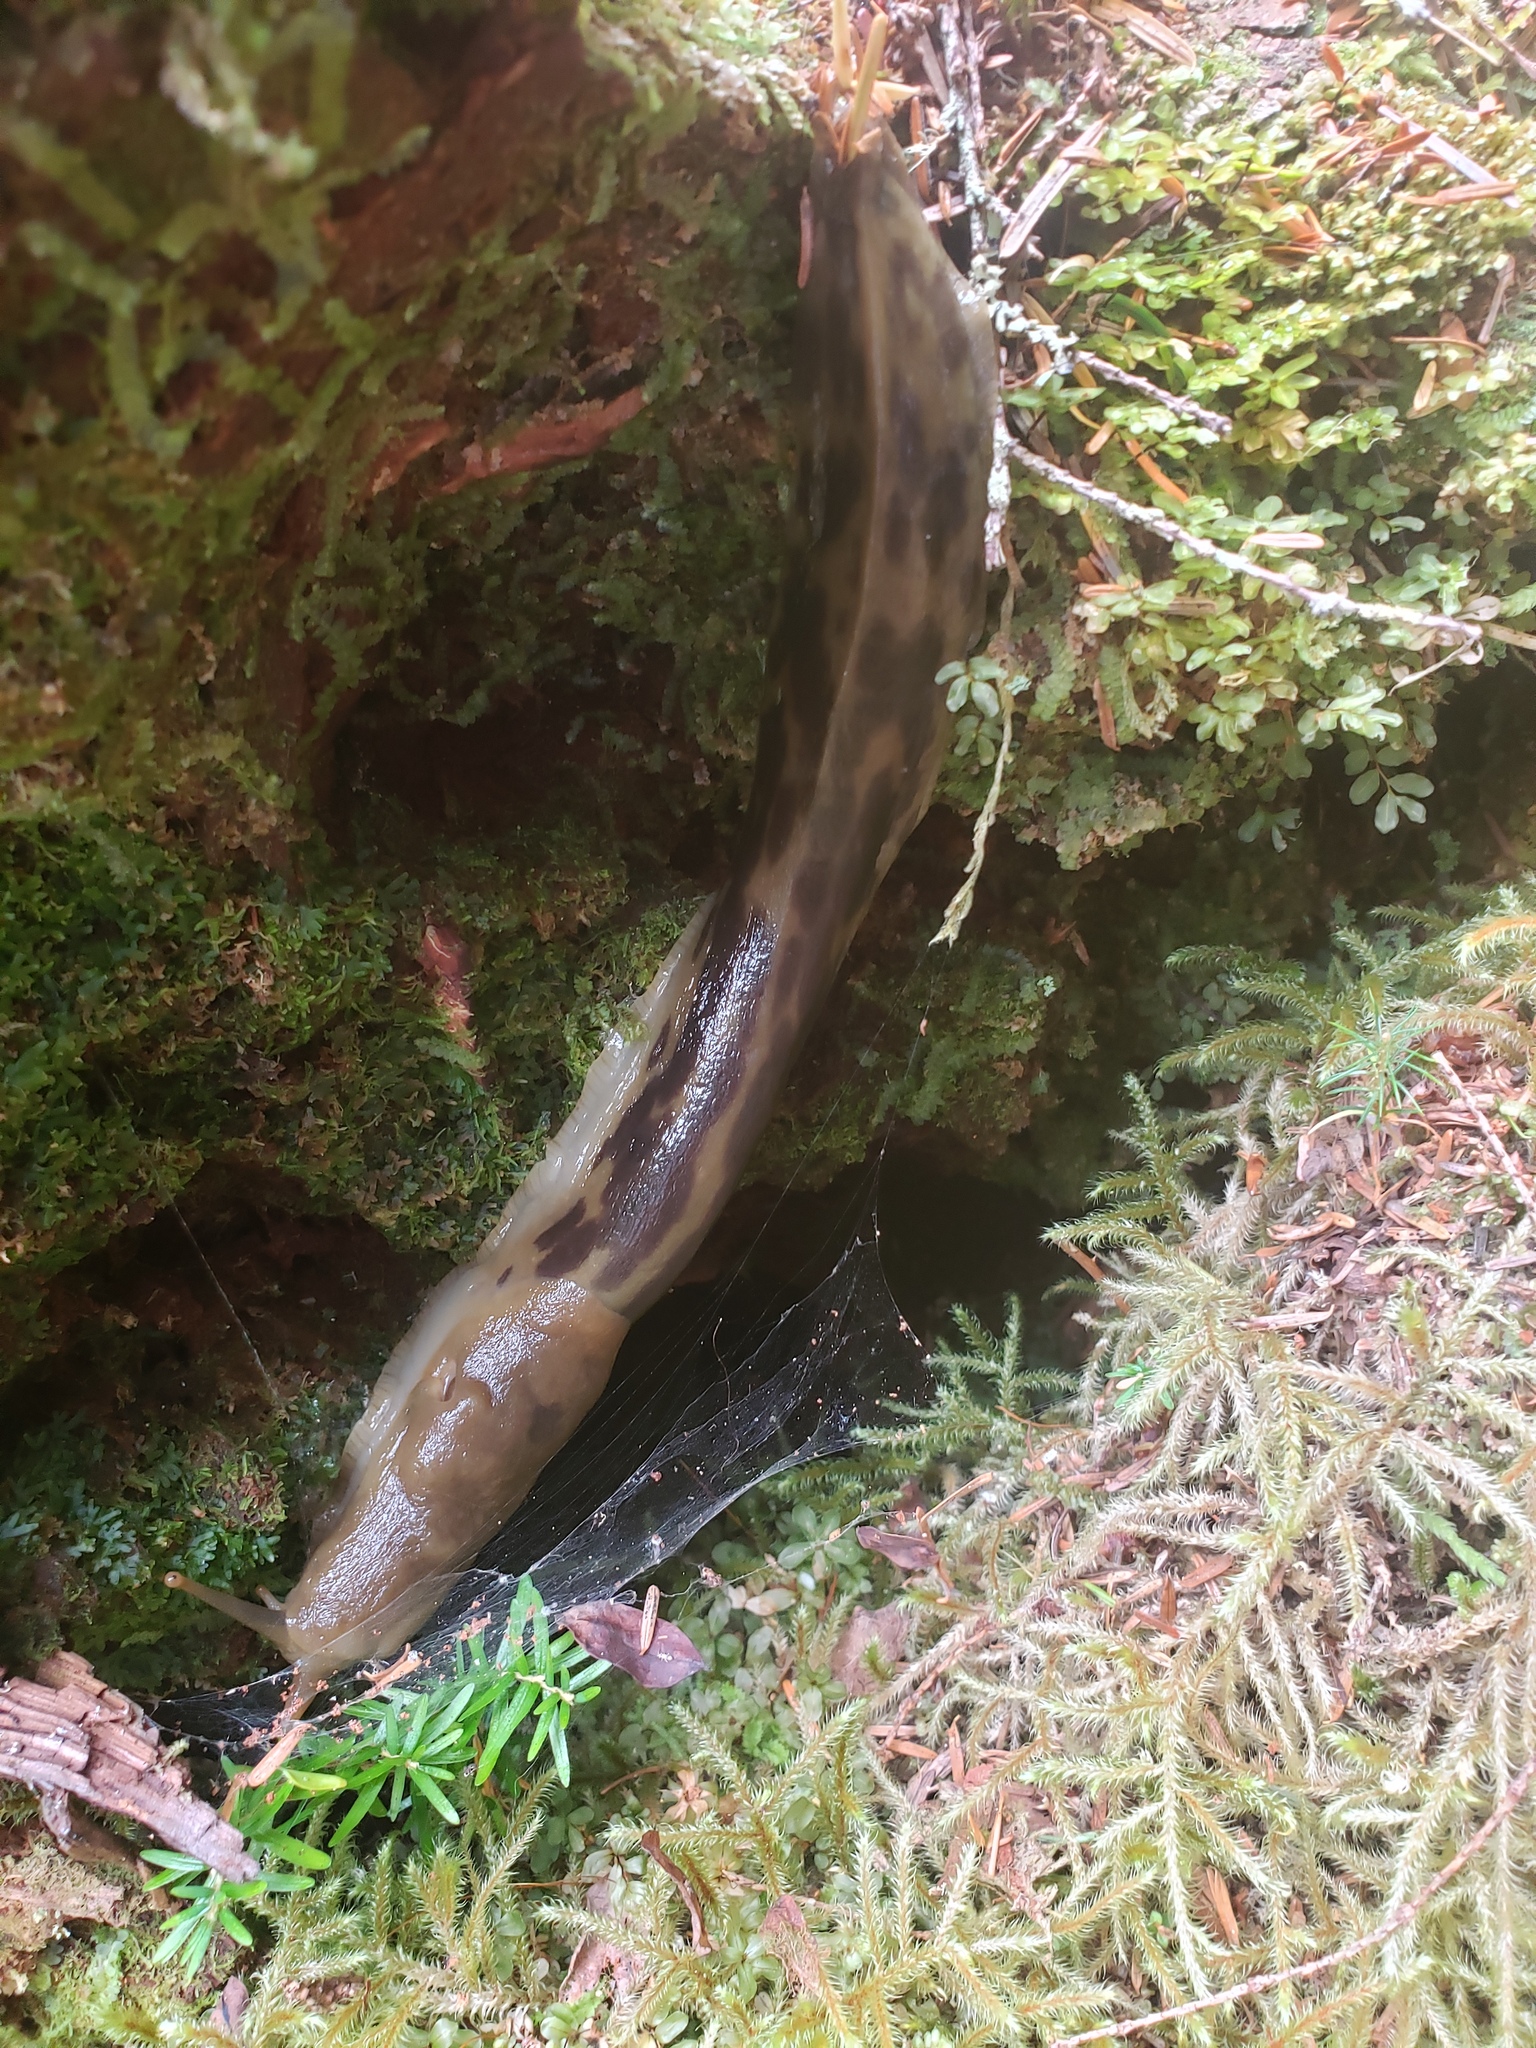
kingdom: Animalia
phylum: Mollusca
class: Gastropoda
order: Stylommatophora
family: Ariolimacidae
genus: Ariolimax
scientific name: Ariolimax columbianus
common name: Pacific banana slug
